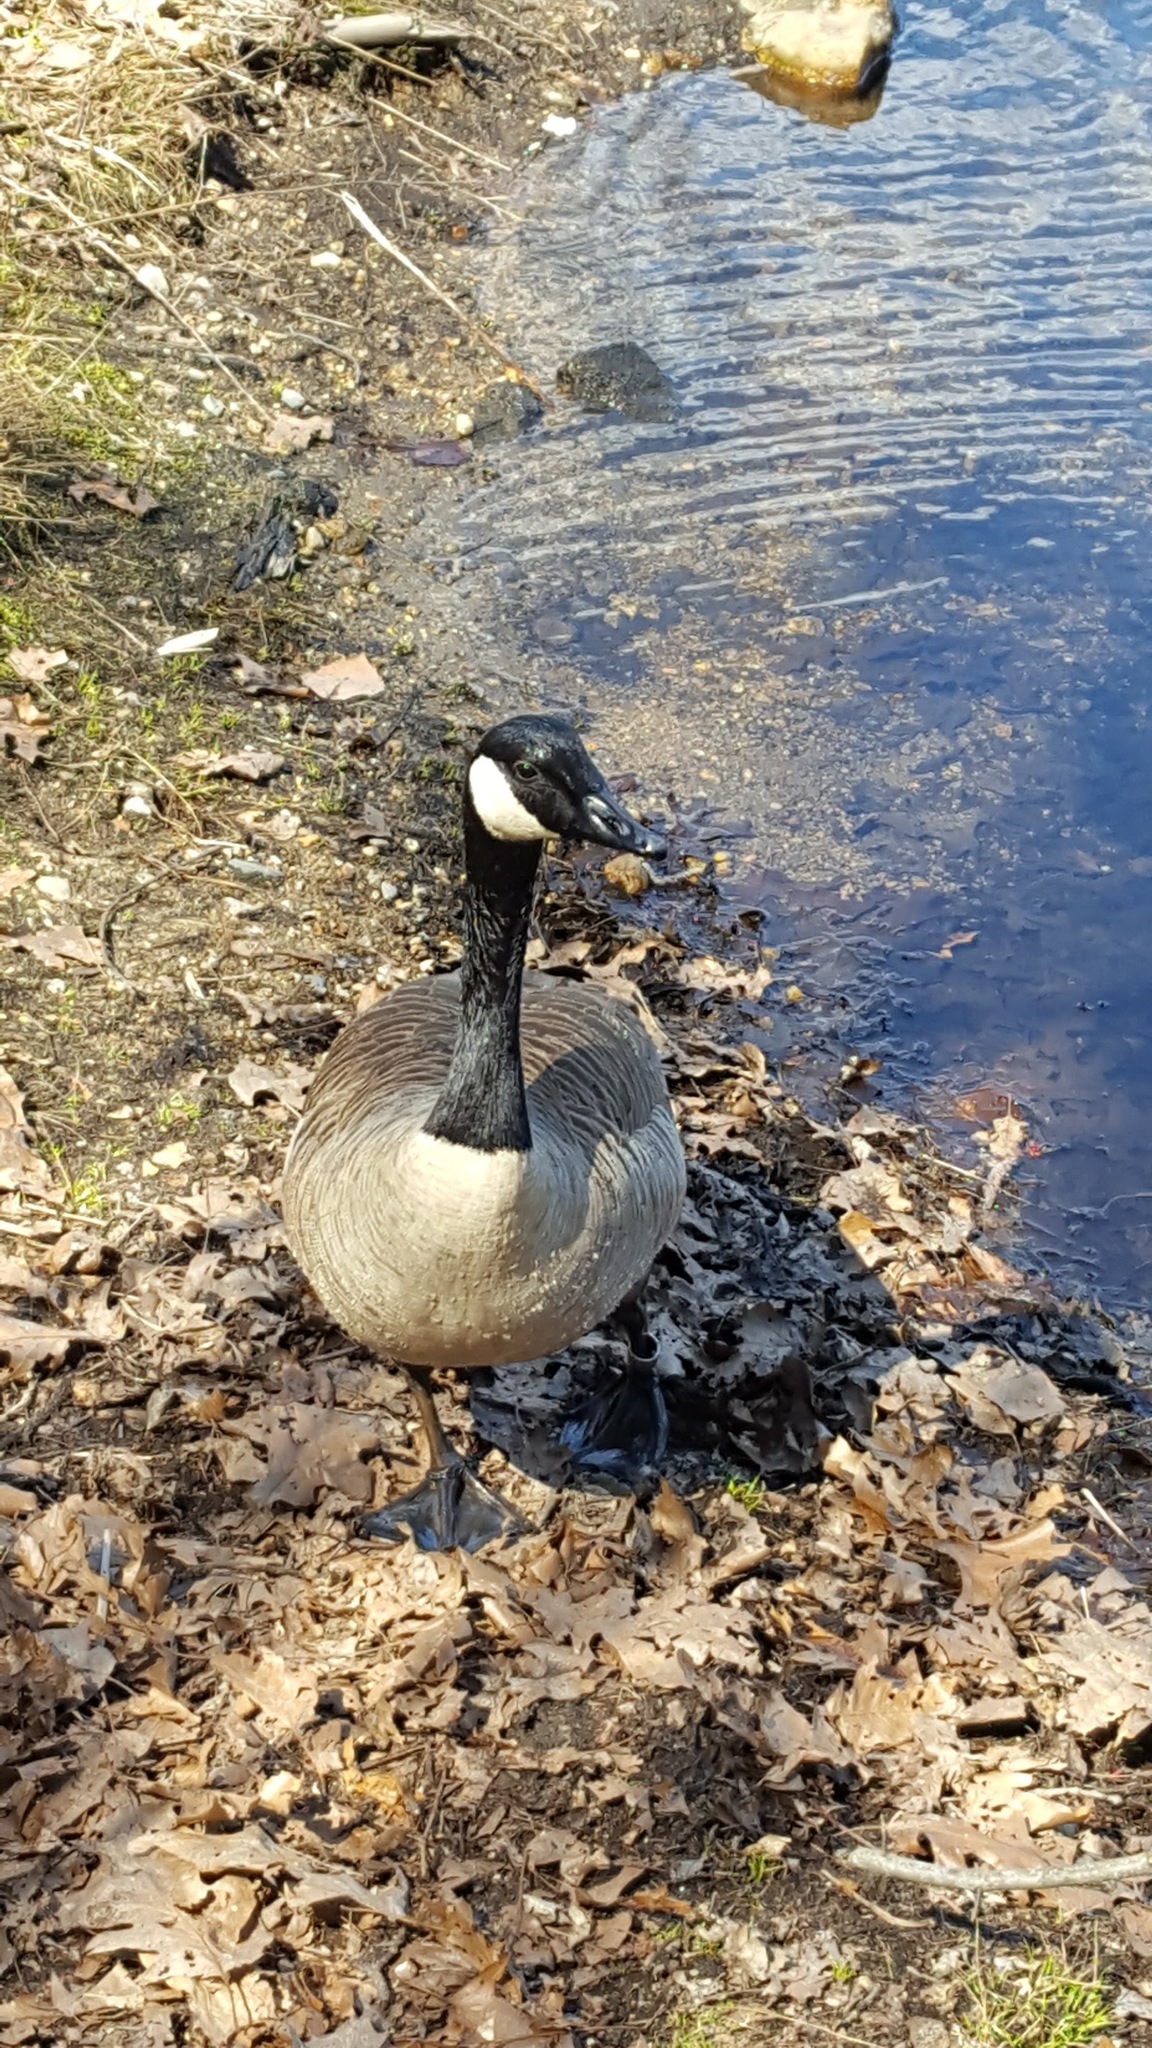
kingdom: Animalia
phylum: Chordata
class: Aves
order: Anseriformes
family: Anatidae
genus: Branta
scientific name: Branta canadensis
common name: Canada goose
